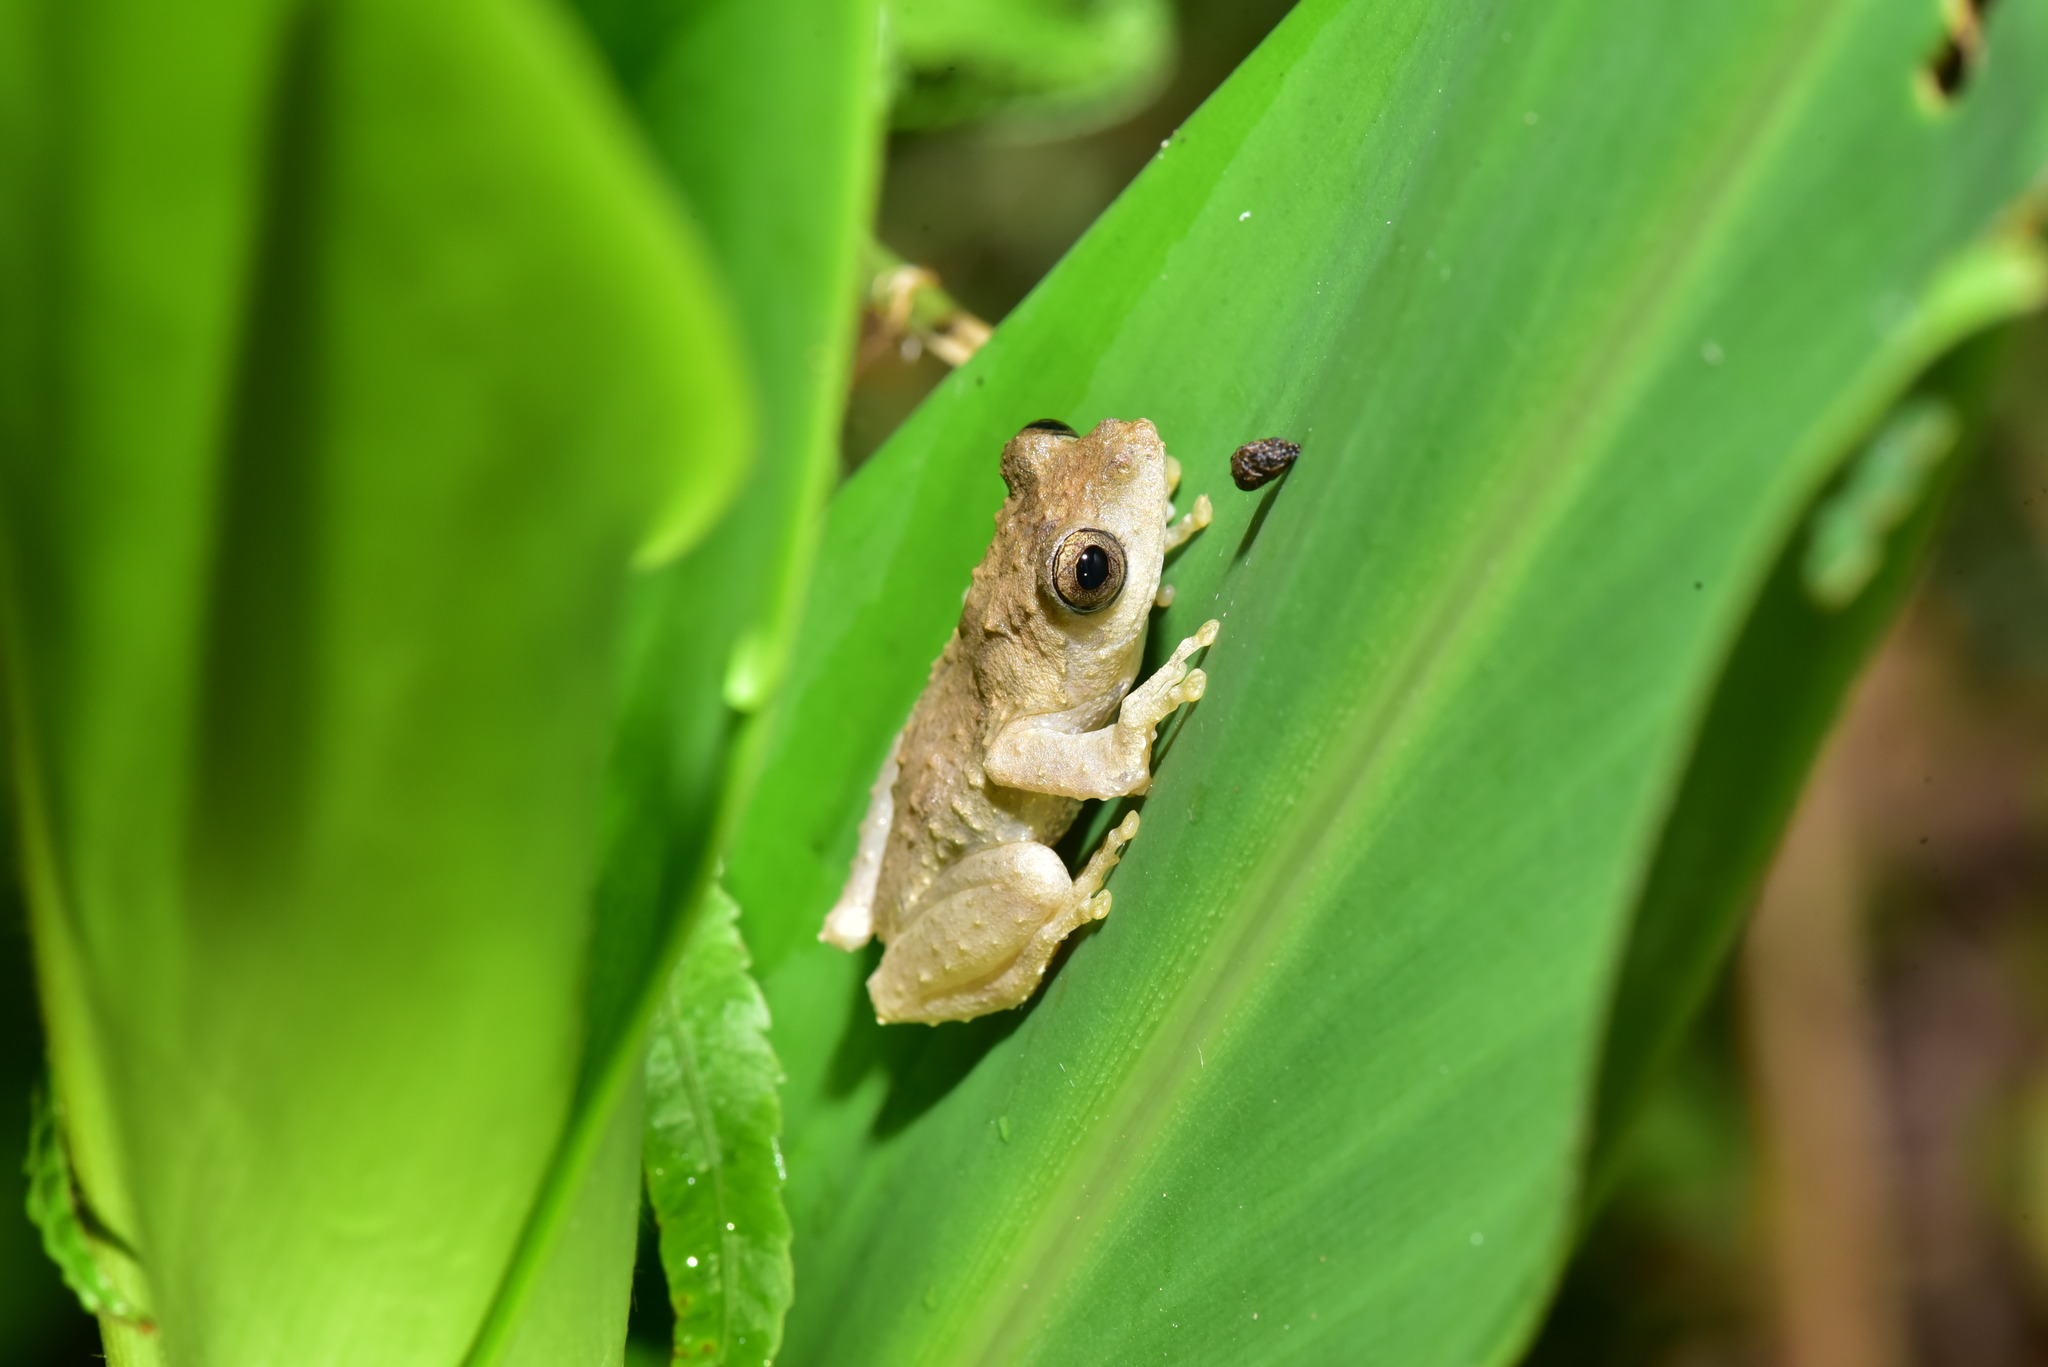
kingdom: Animalia
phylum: Chordata
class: Amphibia
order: Anura
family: Rhacophoridae
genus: Kurixalus
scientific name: Kurixalus idiootocus
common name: Temple treefrog
